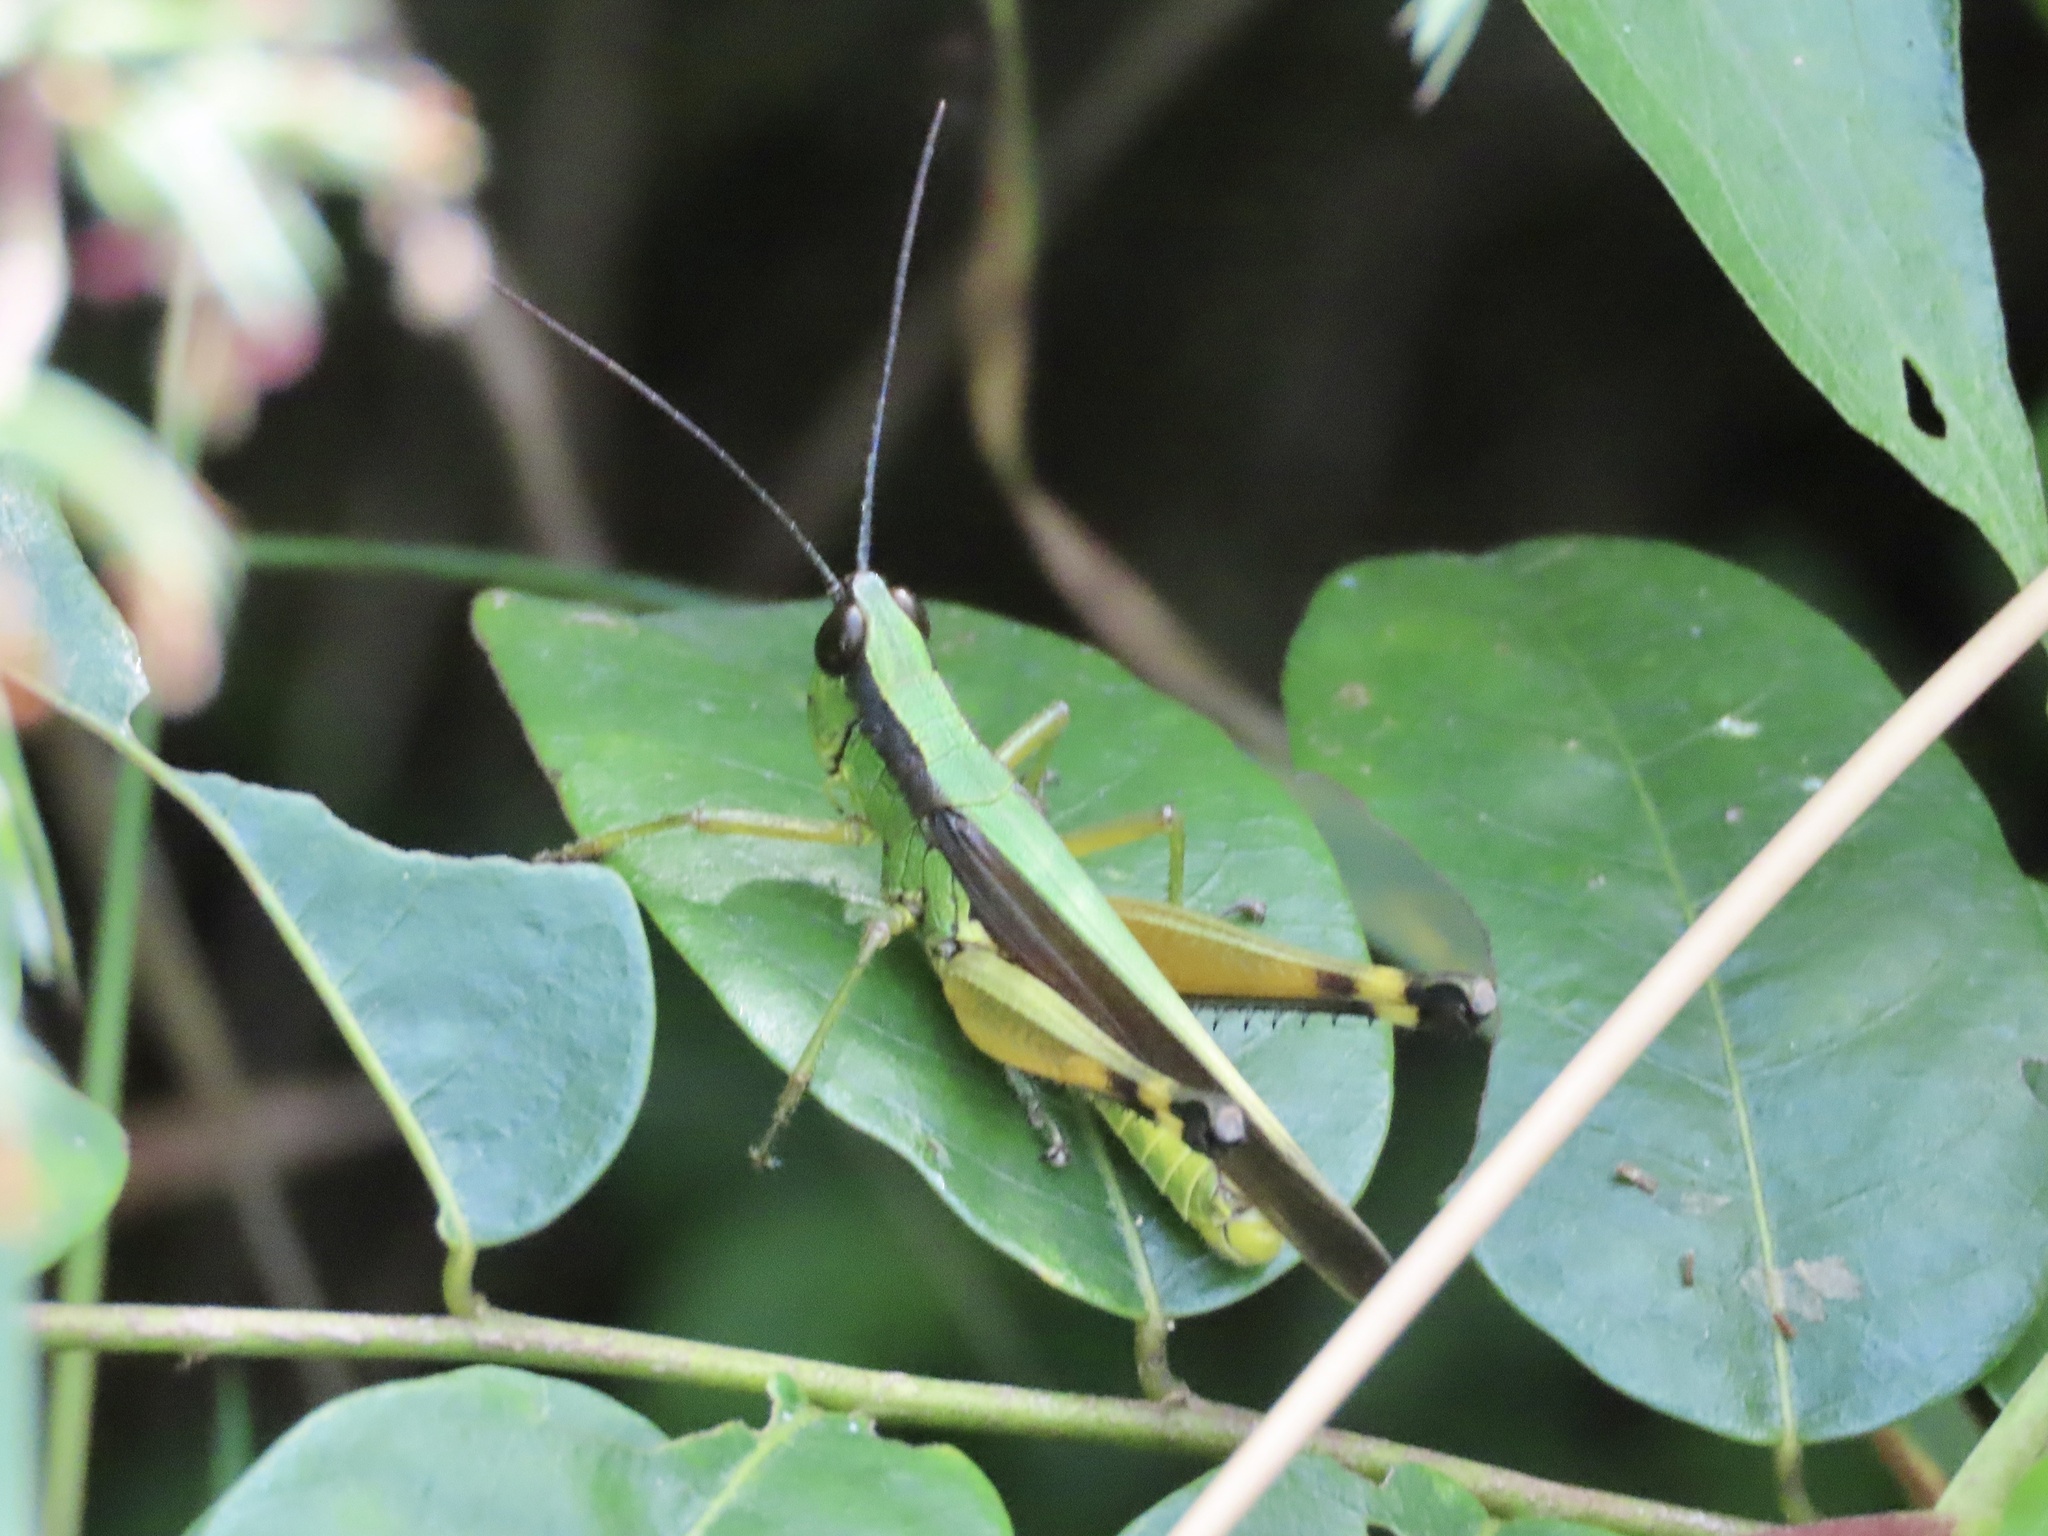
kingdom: Animalia
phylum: Arthropoda
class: Insecta
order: Orthoptera
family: Acrididae
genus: Ceracris
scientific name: Ceracris nigricornis
